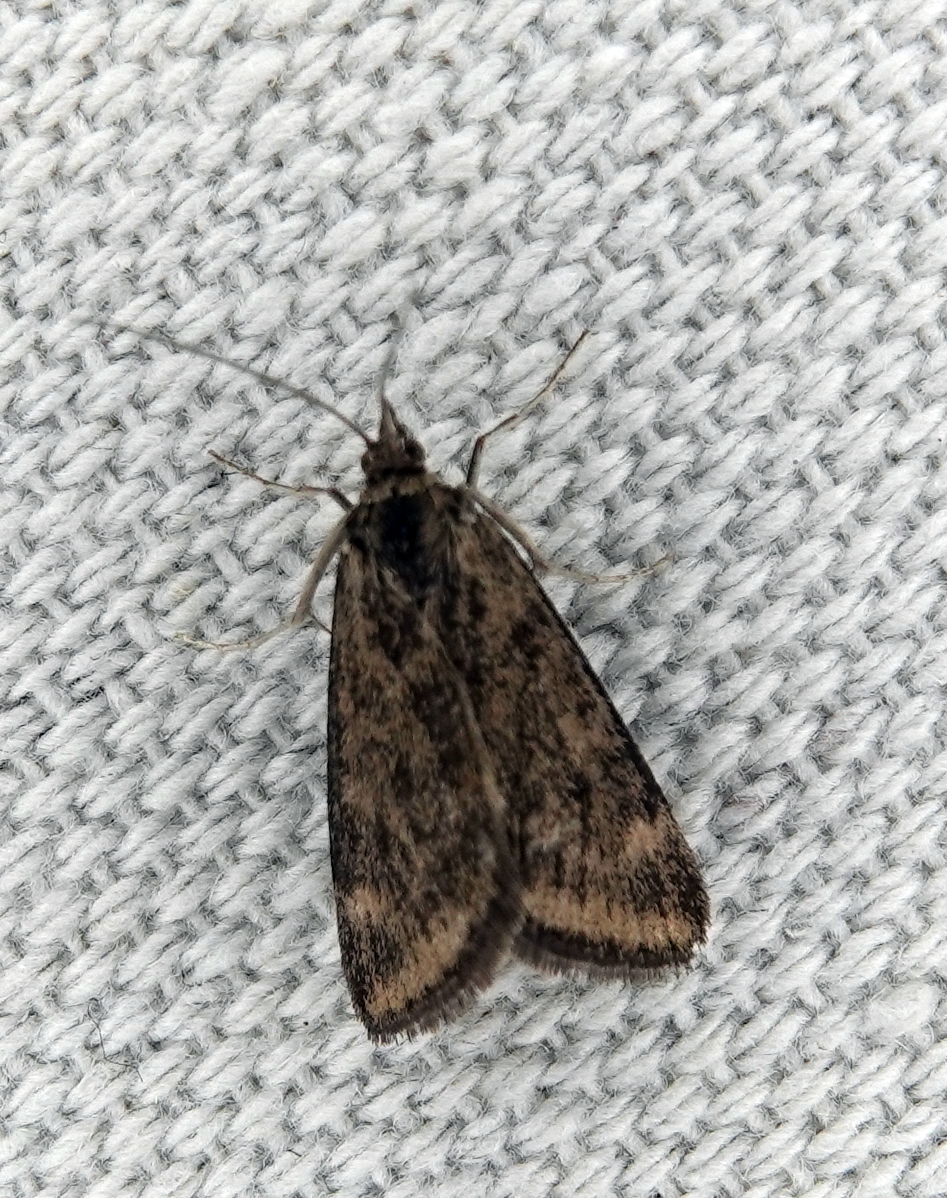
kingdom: Animalia
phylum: Arthropoda
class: Insecta
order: Lepidoptera
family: Crambidae
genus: Loxostege
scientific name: Loxostege cereralis
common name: Alfalfa webworm moth
